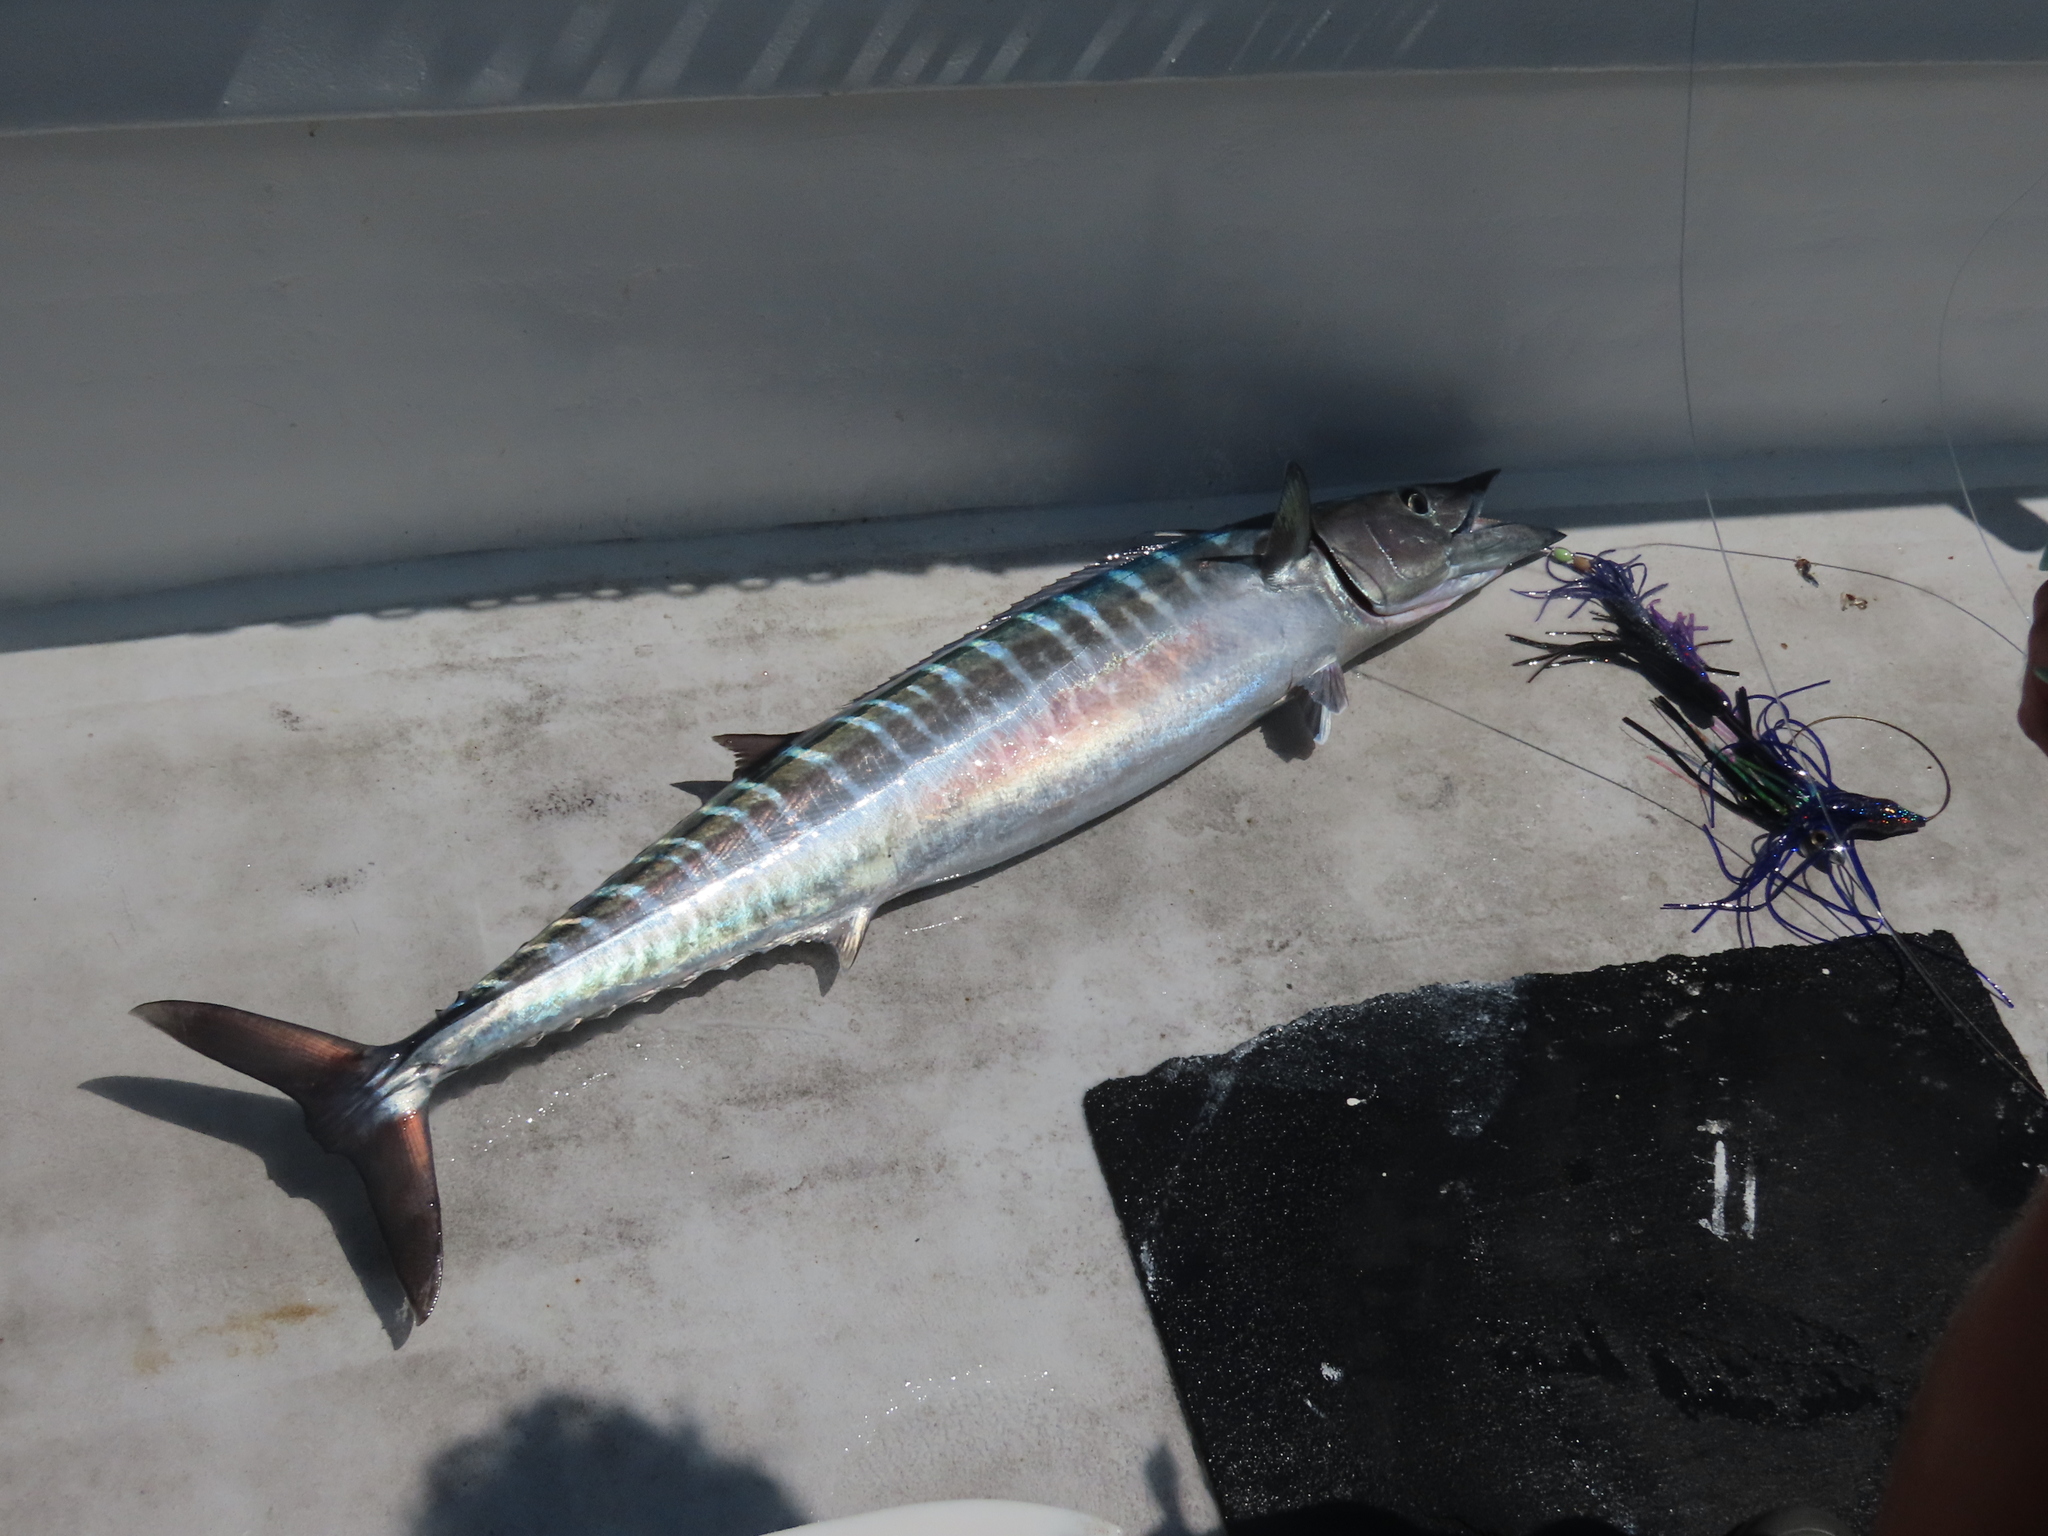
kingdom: Animalia
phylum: Chordata
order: Perciformes
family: Scombridae
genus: Acanthocybium
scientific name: Acanthocybium solandri
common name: Wahoo
